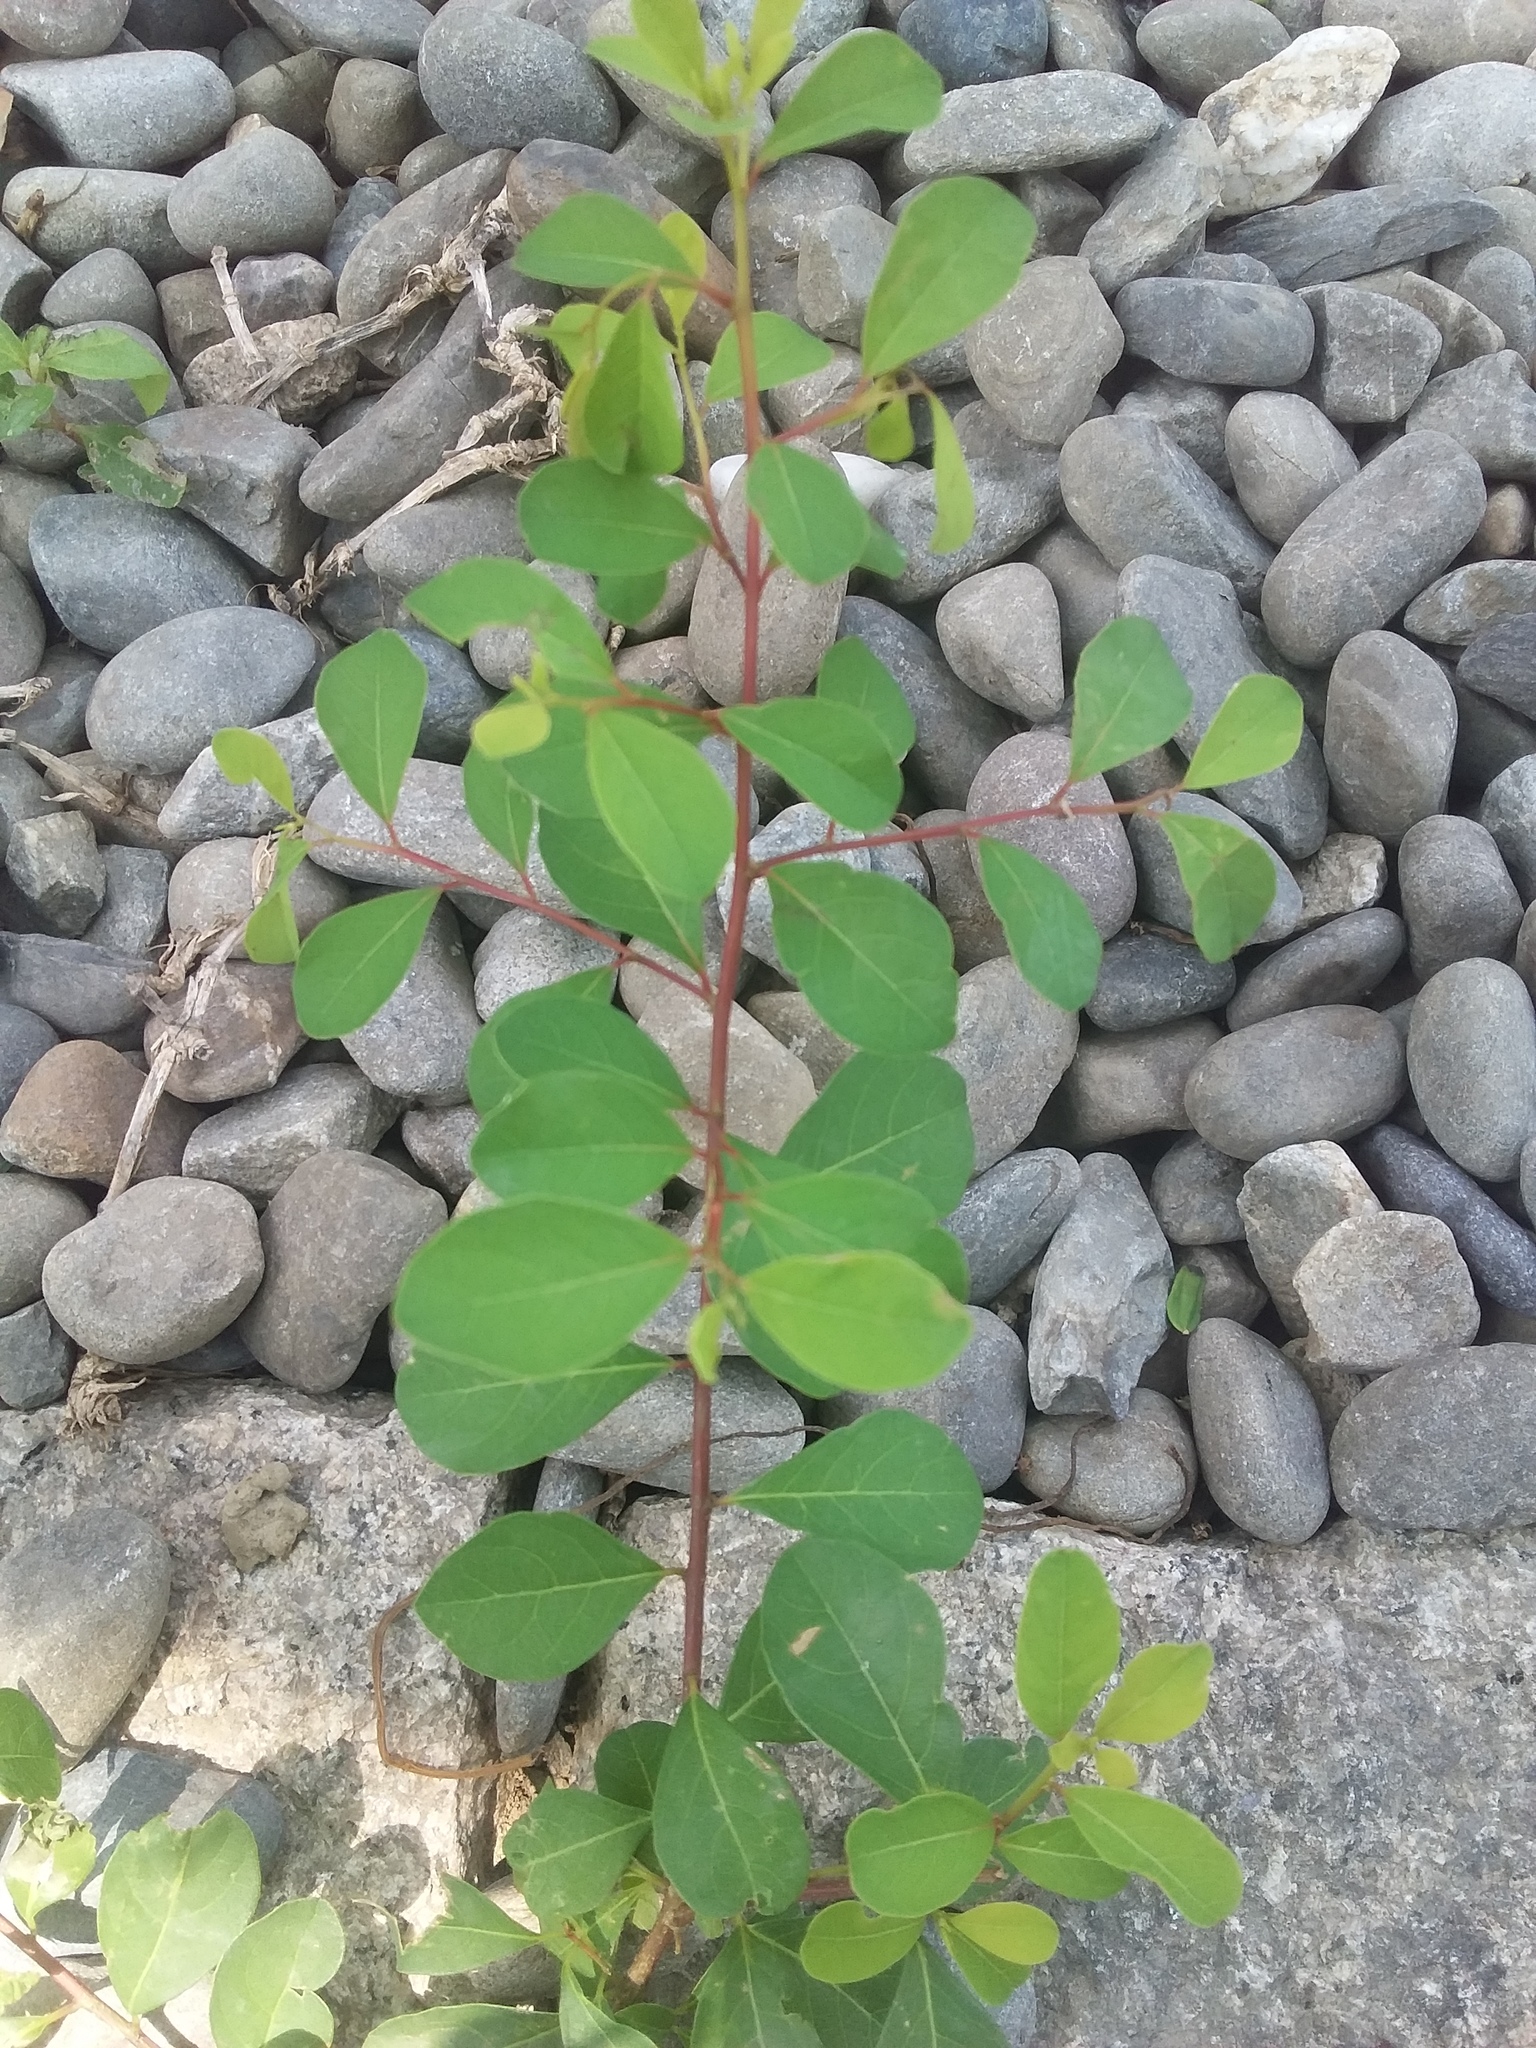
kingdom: Plantae
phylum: Tracheophyta
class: Magnoliopsida
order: Malpighiales
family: Phyllanthaceae
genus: Flueggea
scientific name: Flueggea virosa
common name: Common bushweed
